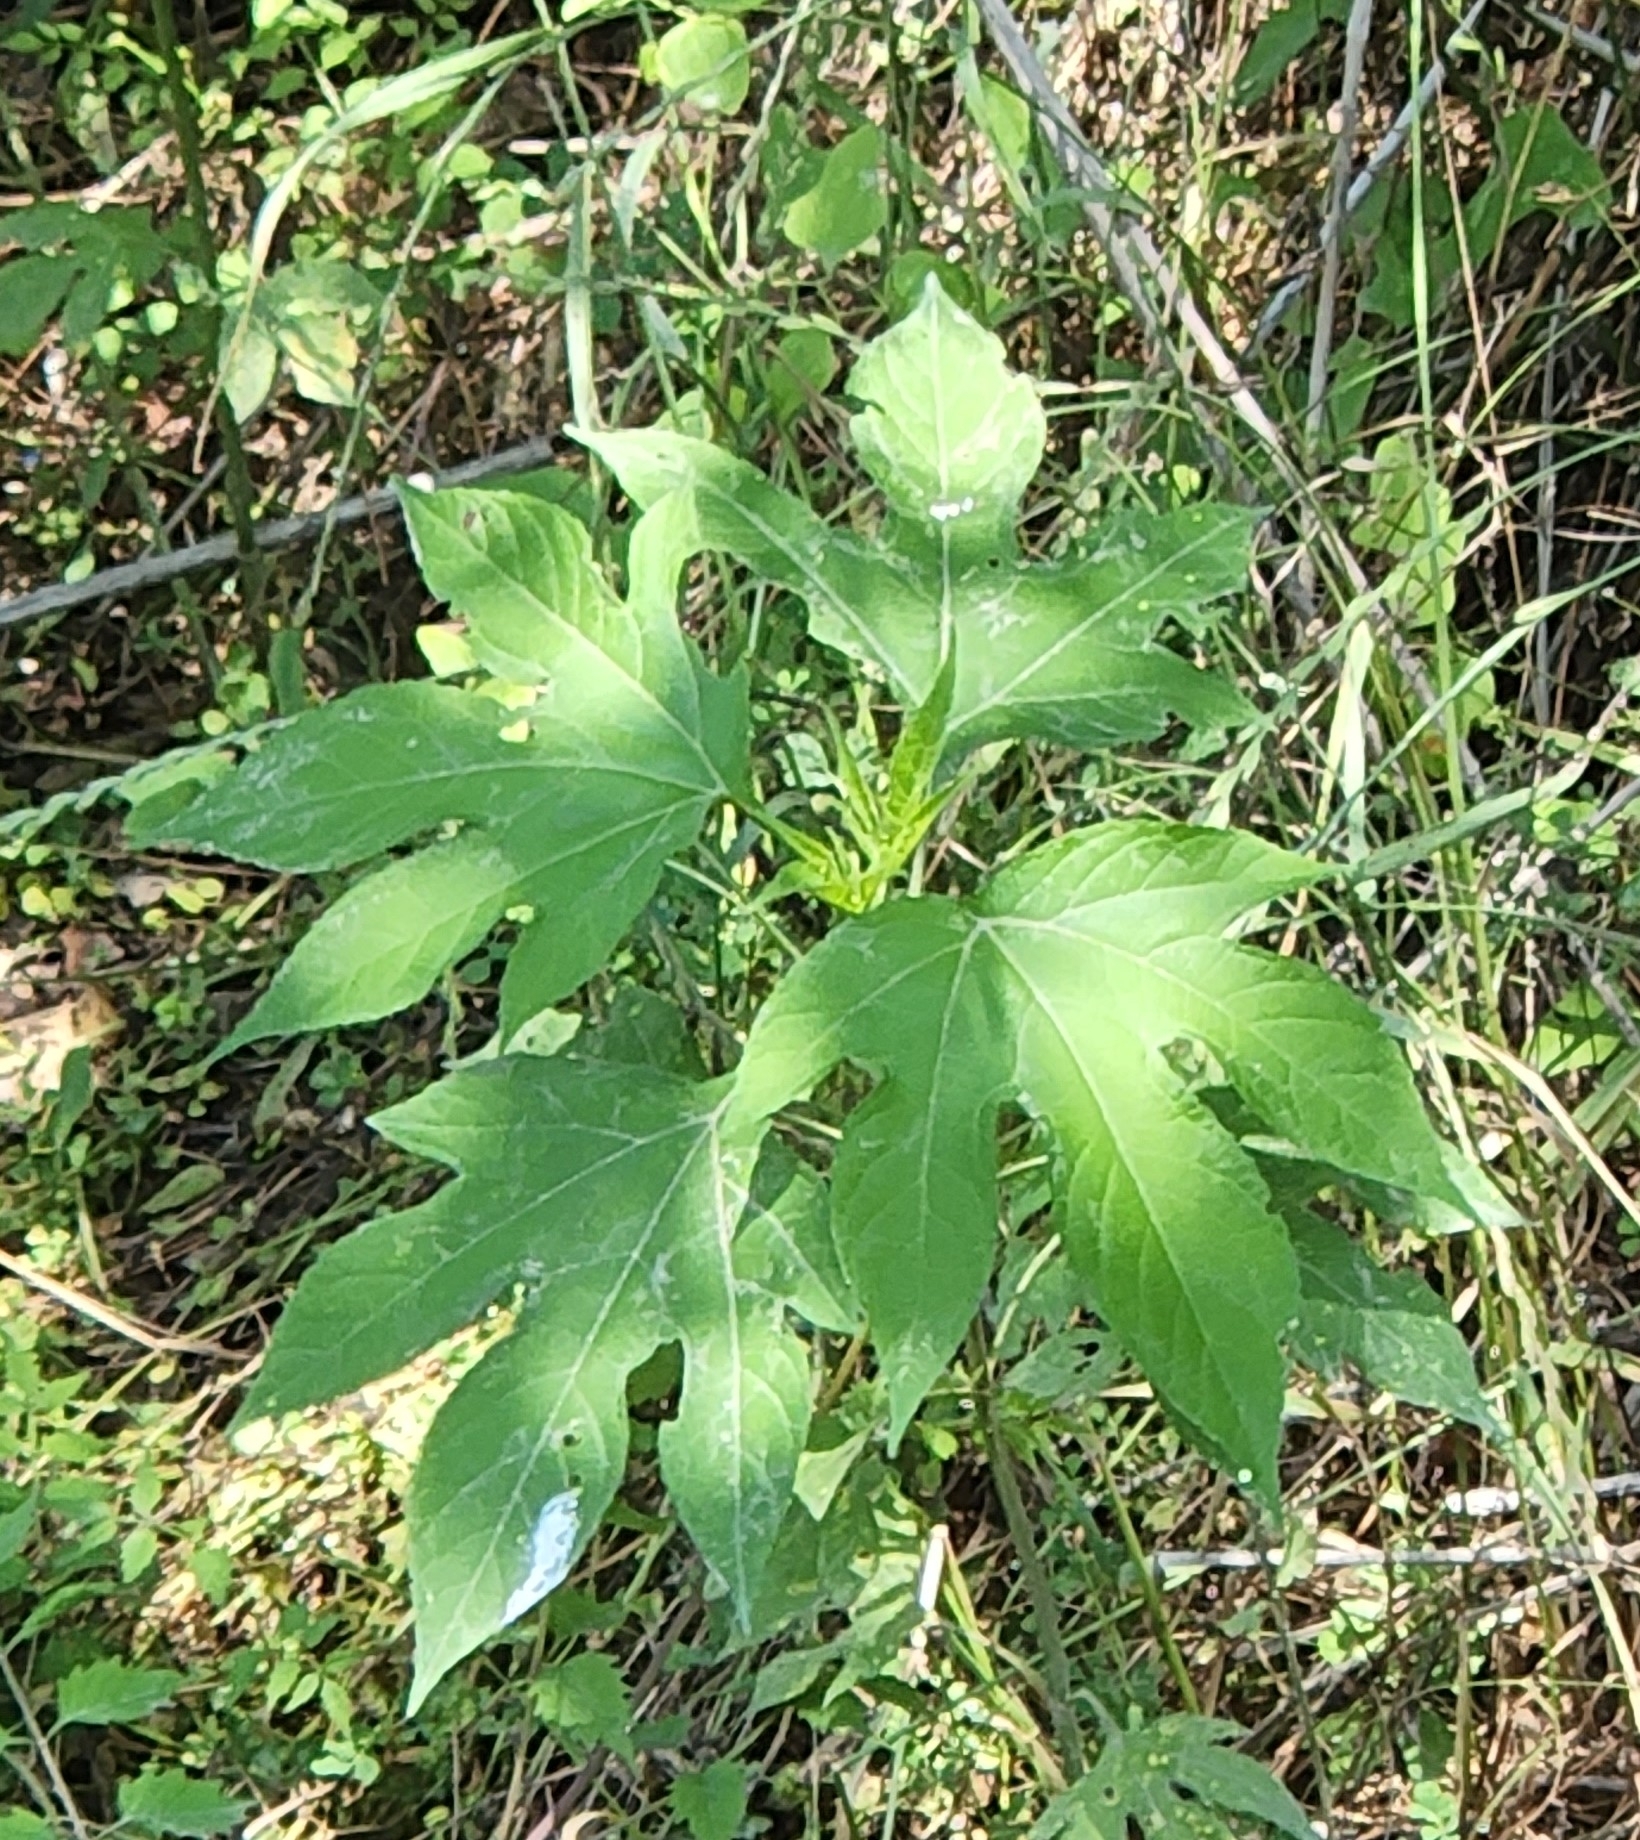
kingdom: Plantae
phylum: Tracheophyta
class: Magnoliopsida
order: Asterales
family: Asteraceae
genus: Ambrosia
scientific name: Ambrosia trifida
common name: Giant ragweed
